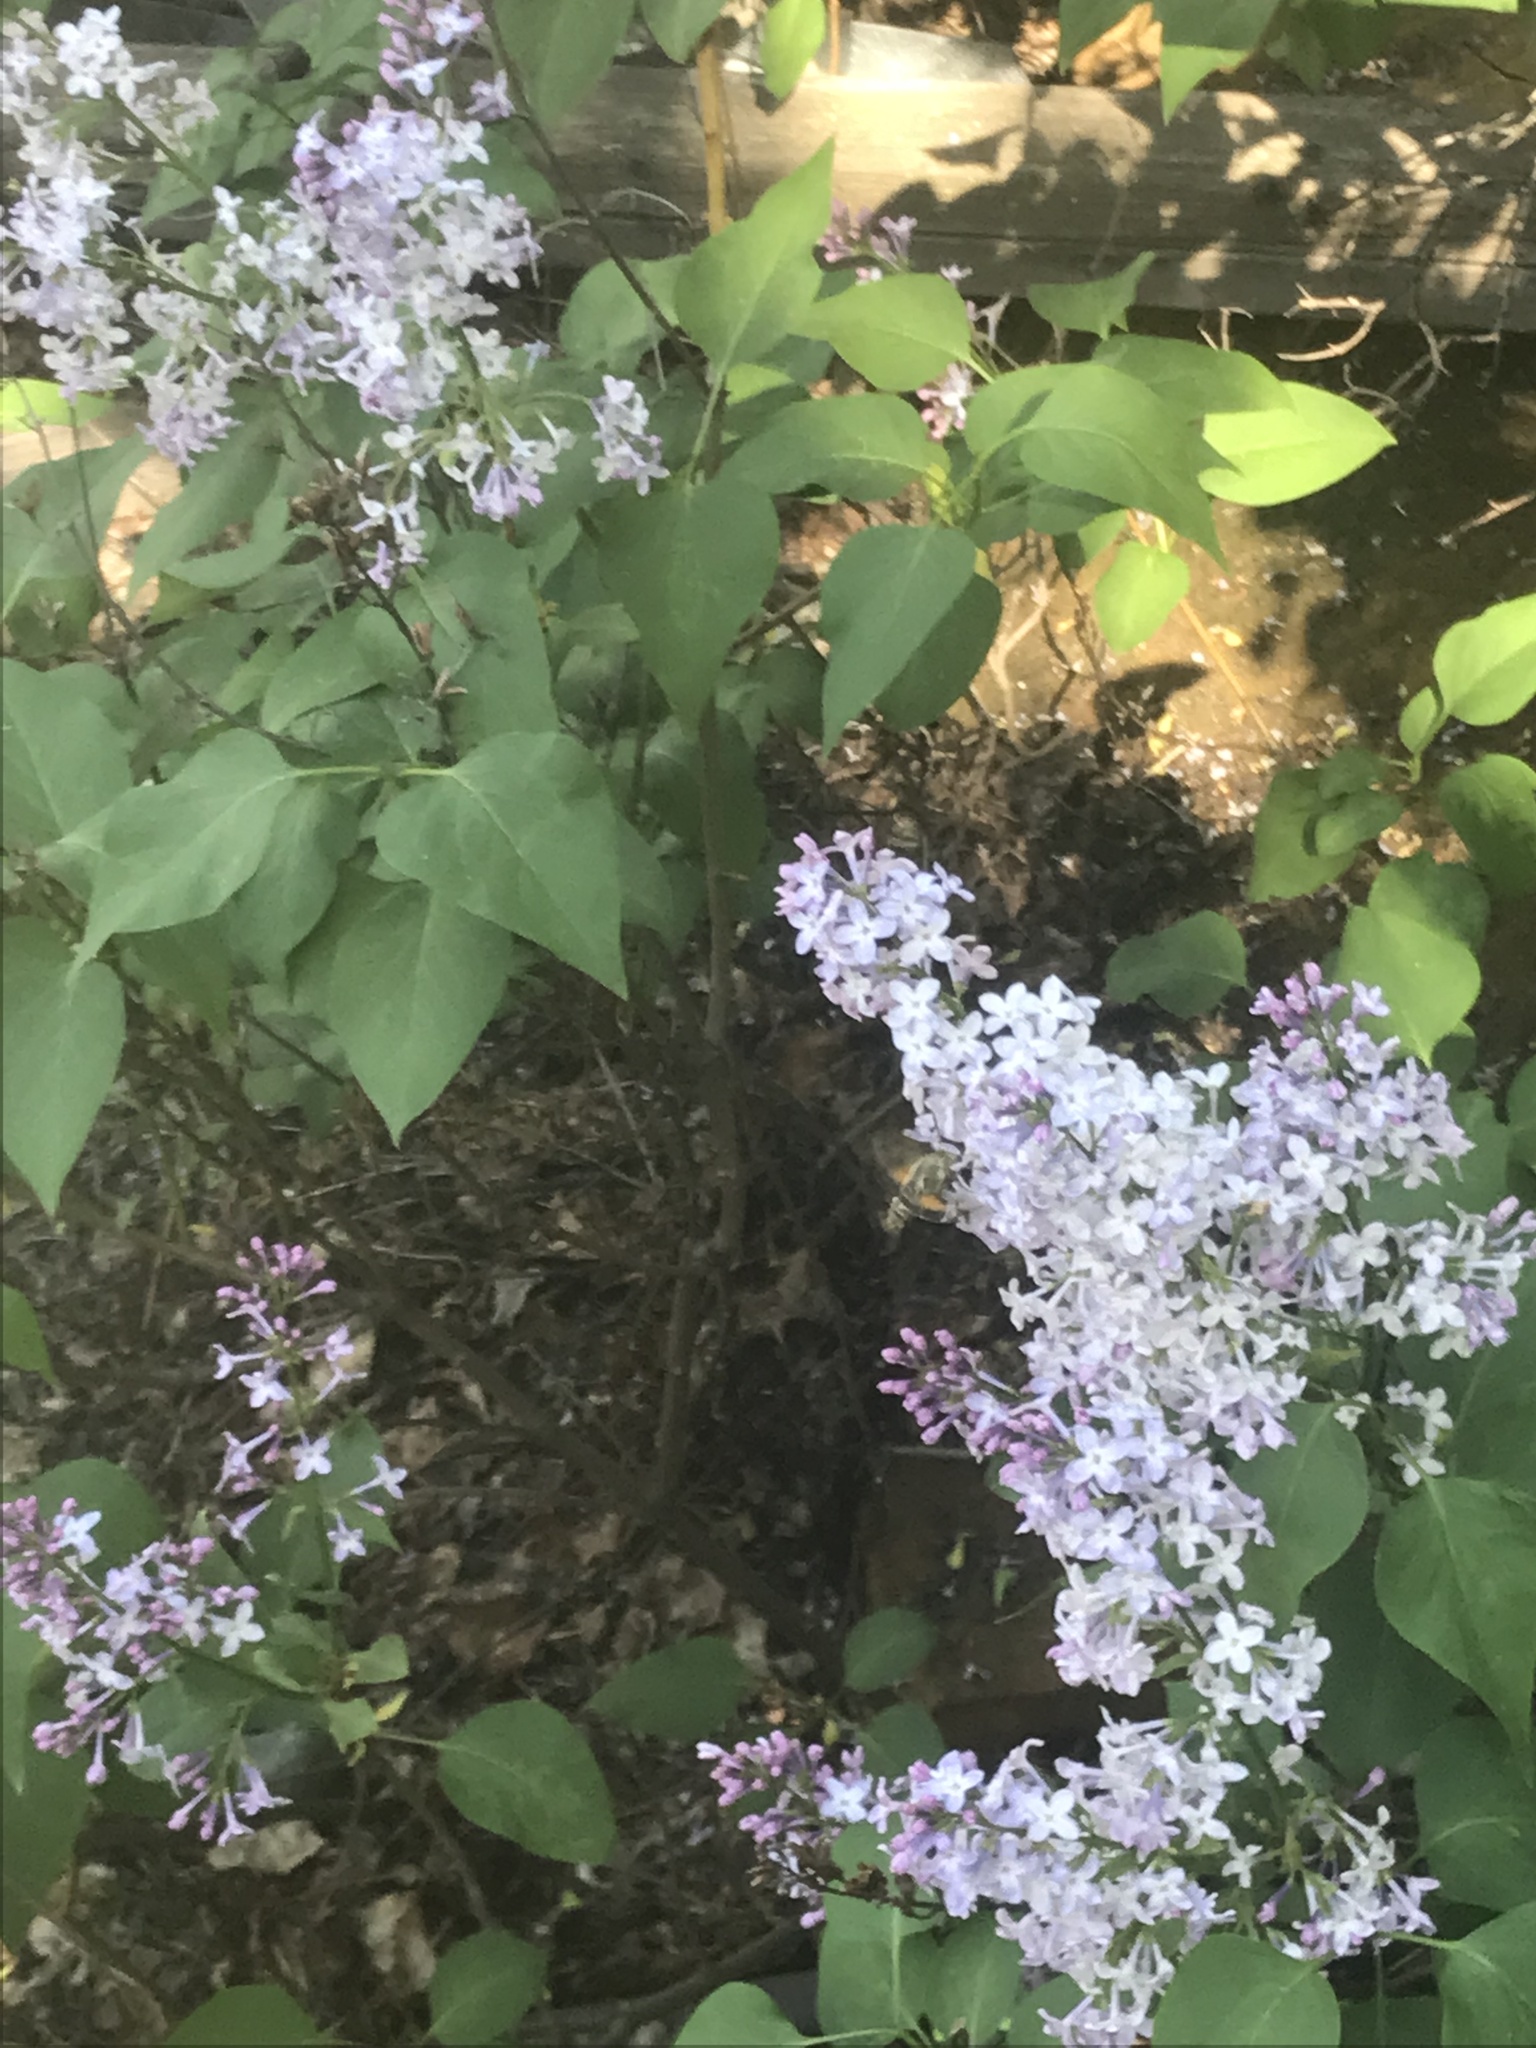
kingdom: Animalia
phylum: Arthropoda
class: Insecta
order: Lepidoptera
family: Sphingidae
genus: Proserpinus
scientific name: Proserpinus clarkiae
